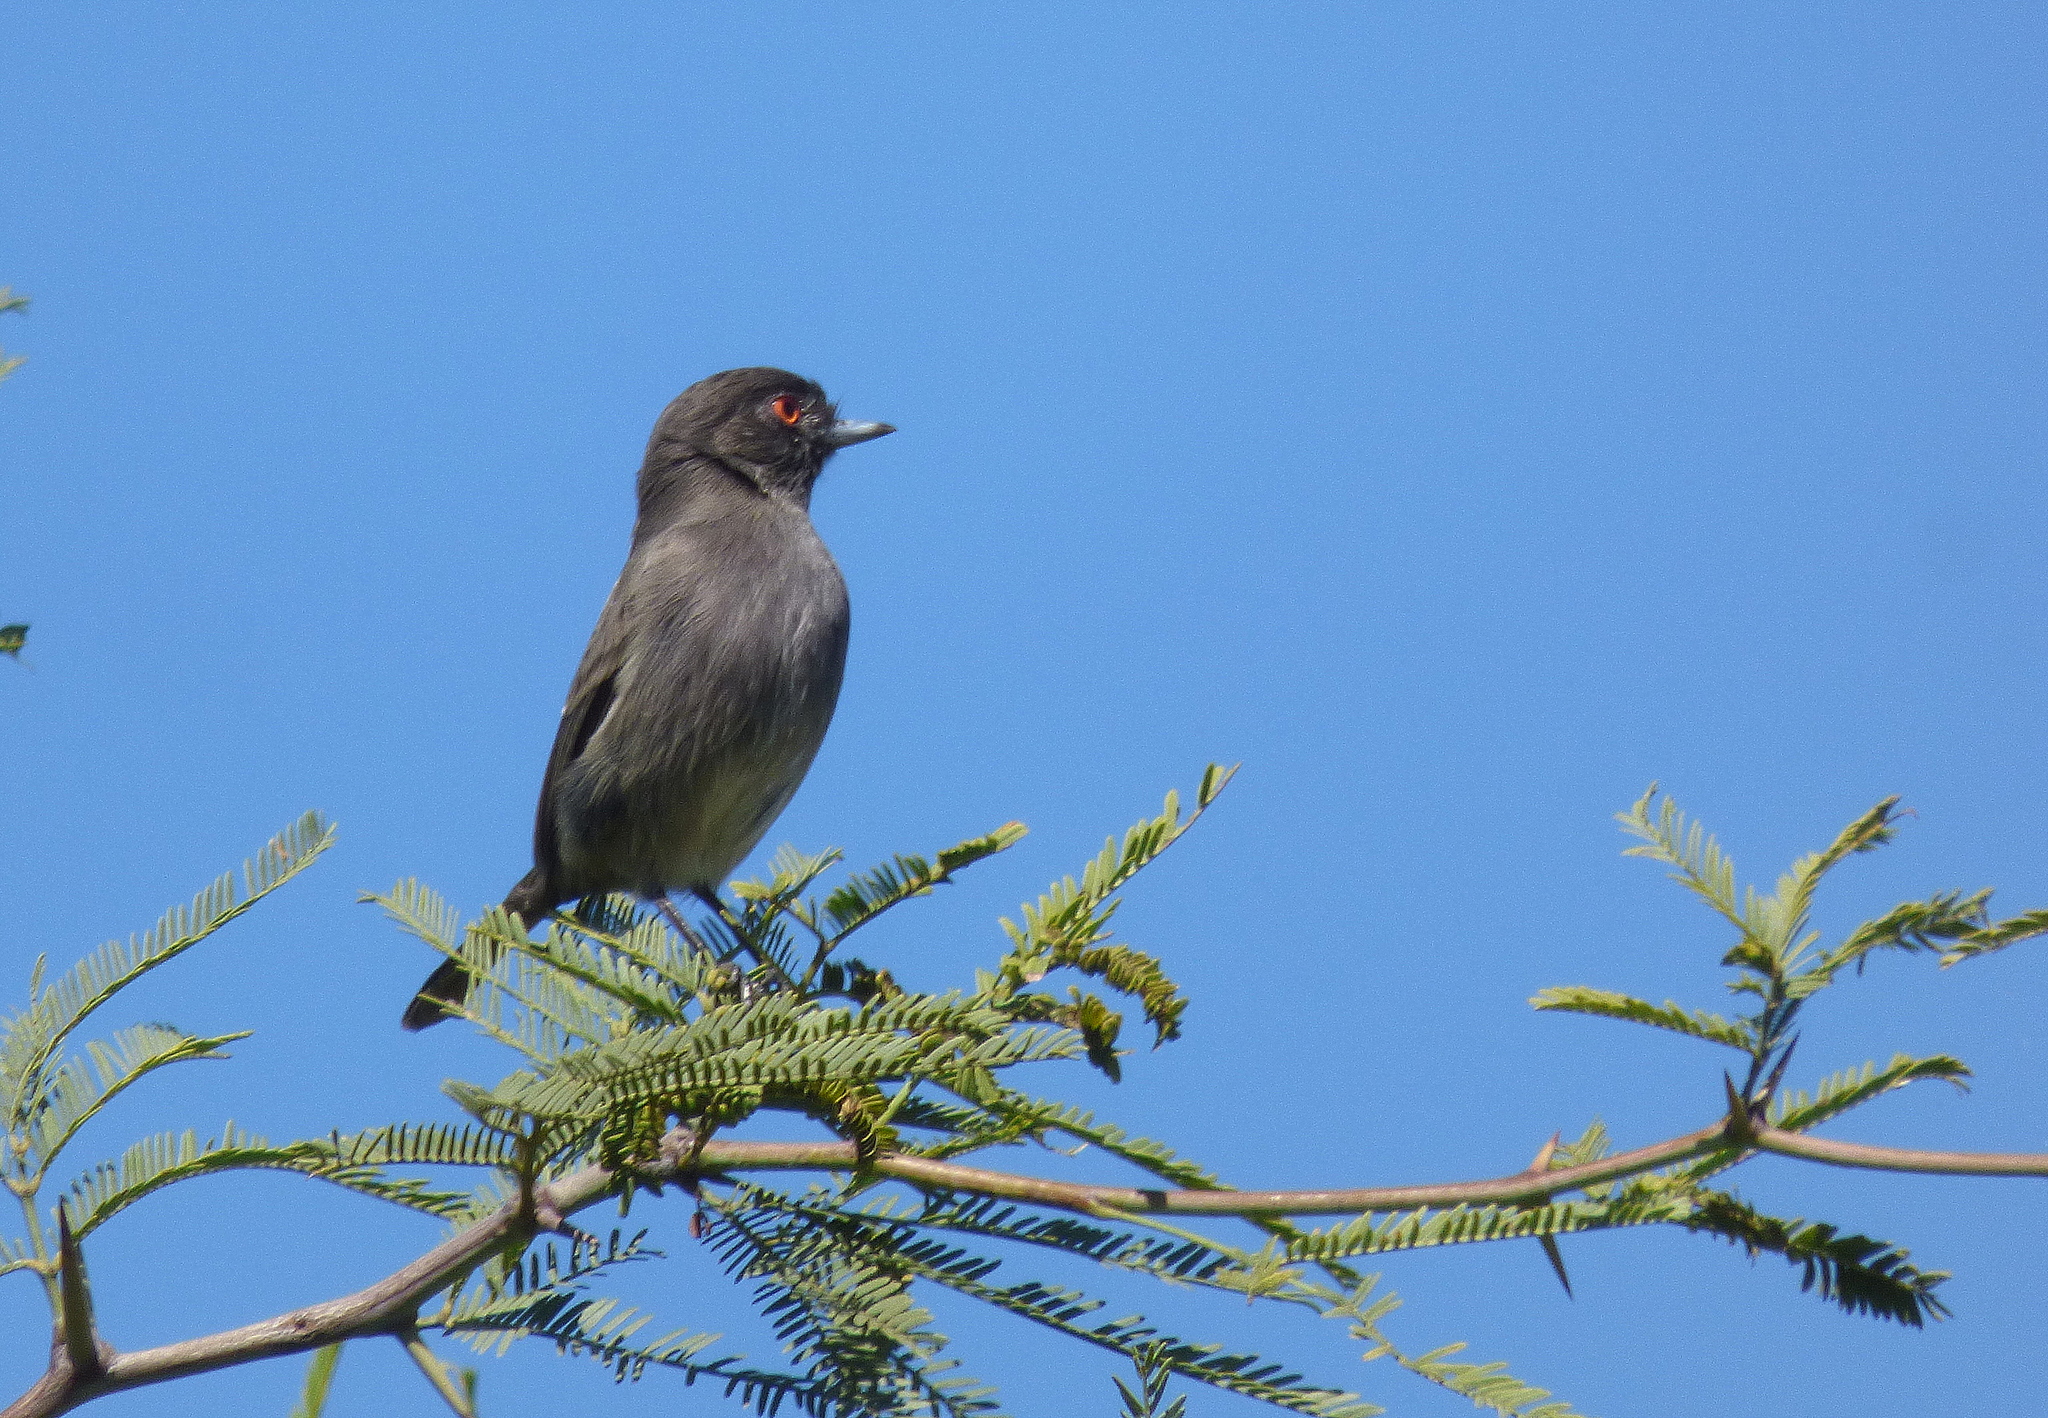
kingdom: Animalia
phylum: Chordata
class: Aves
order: Passeriformes
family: Tyrannidae
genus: Knipolegus
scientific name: Knipolegus striaticeps
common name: Cinereous tyrant
